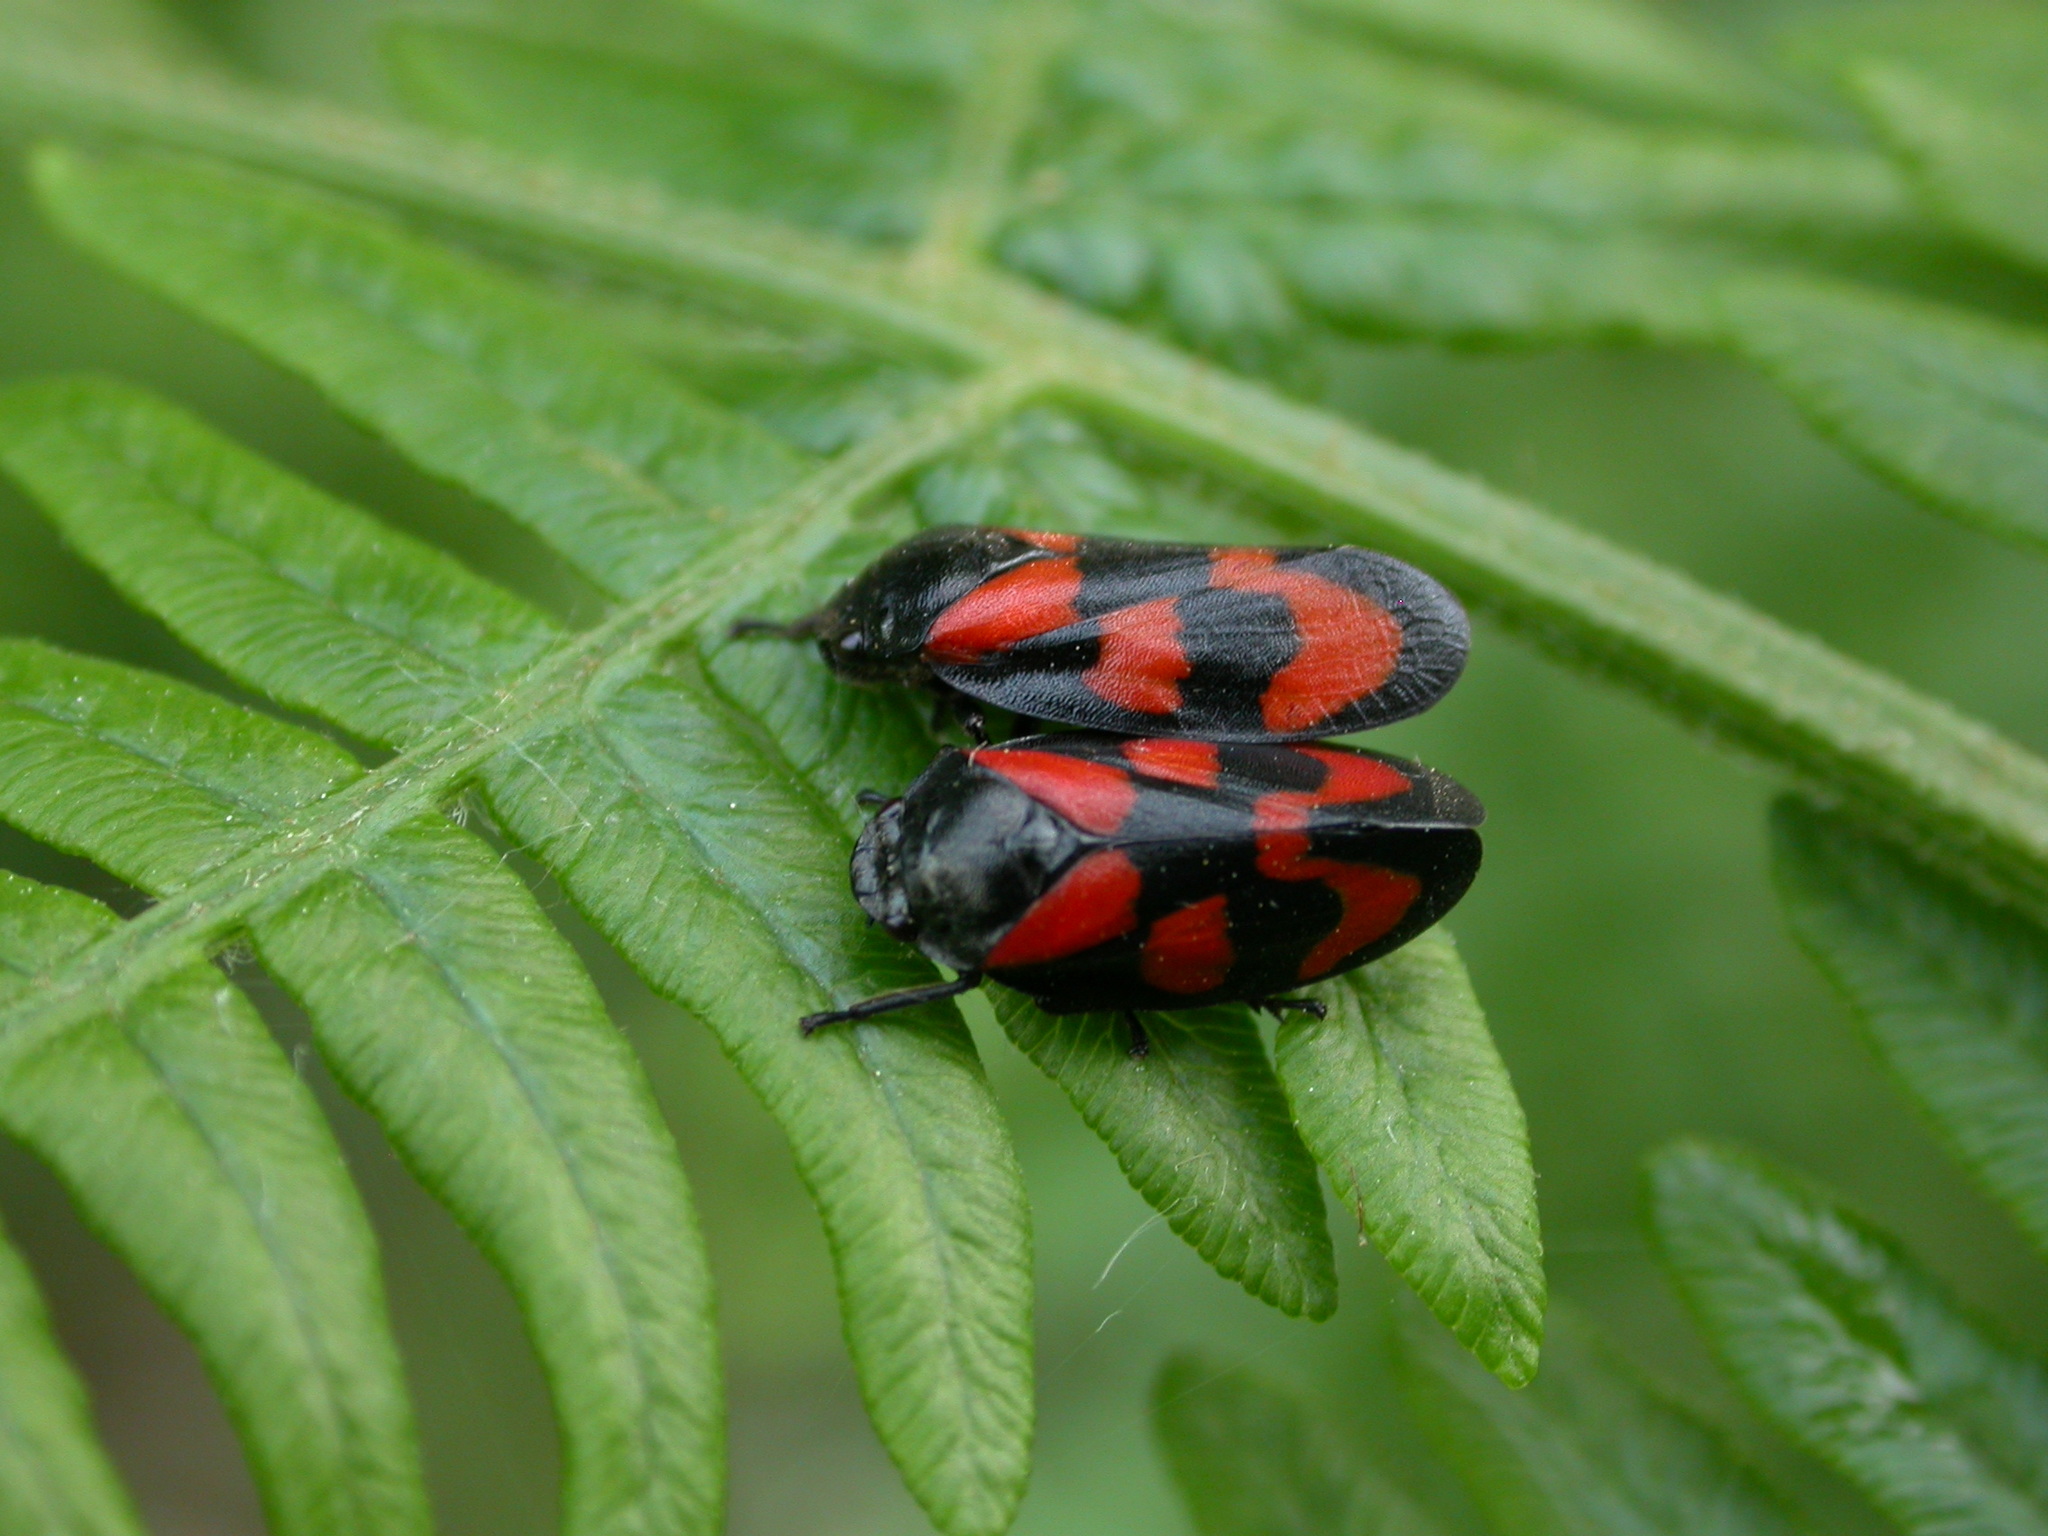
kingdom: Animalia
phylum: Arthropoda
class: Insecta
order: Hemiptera
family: Cercopidae
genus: Cercopis
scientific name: Cercopis vulnerata
